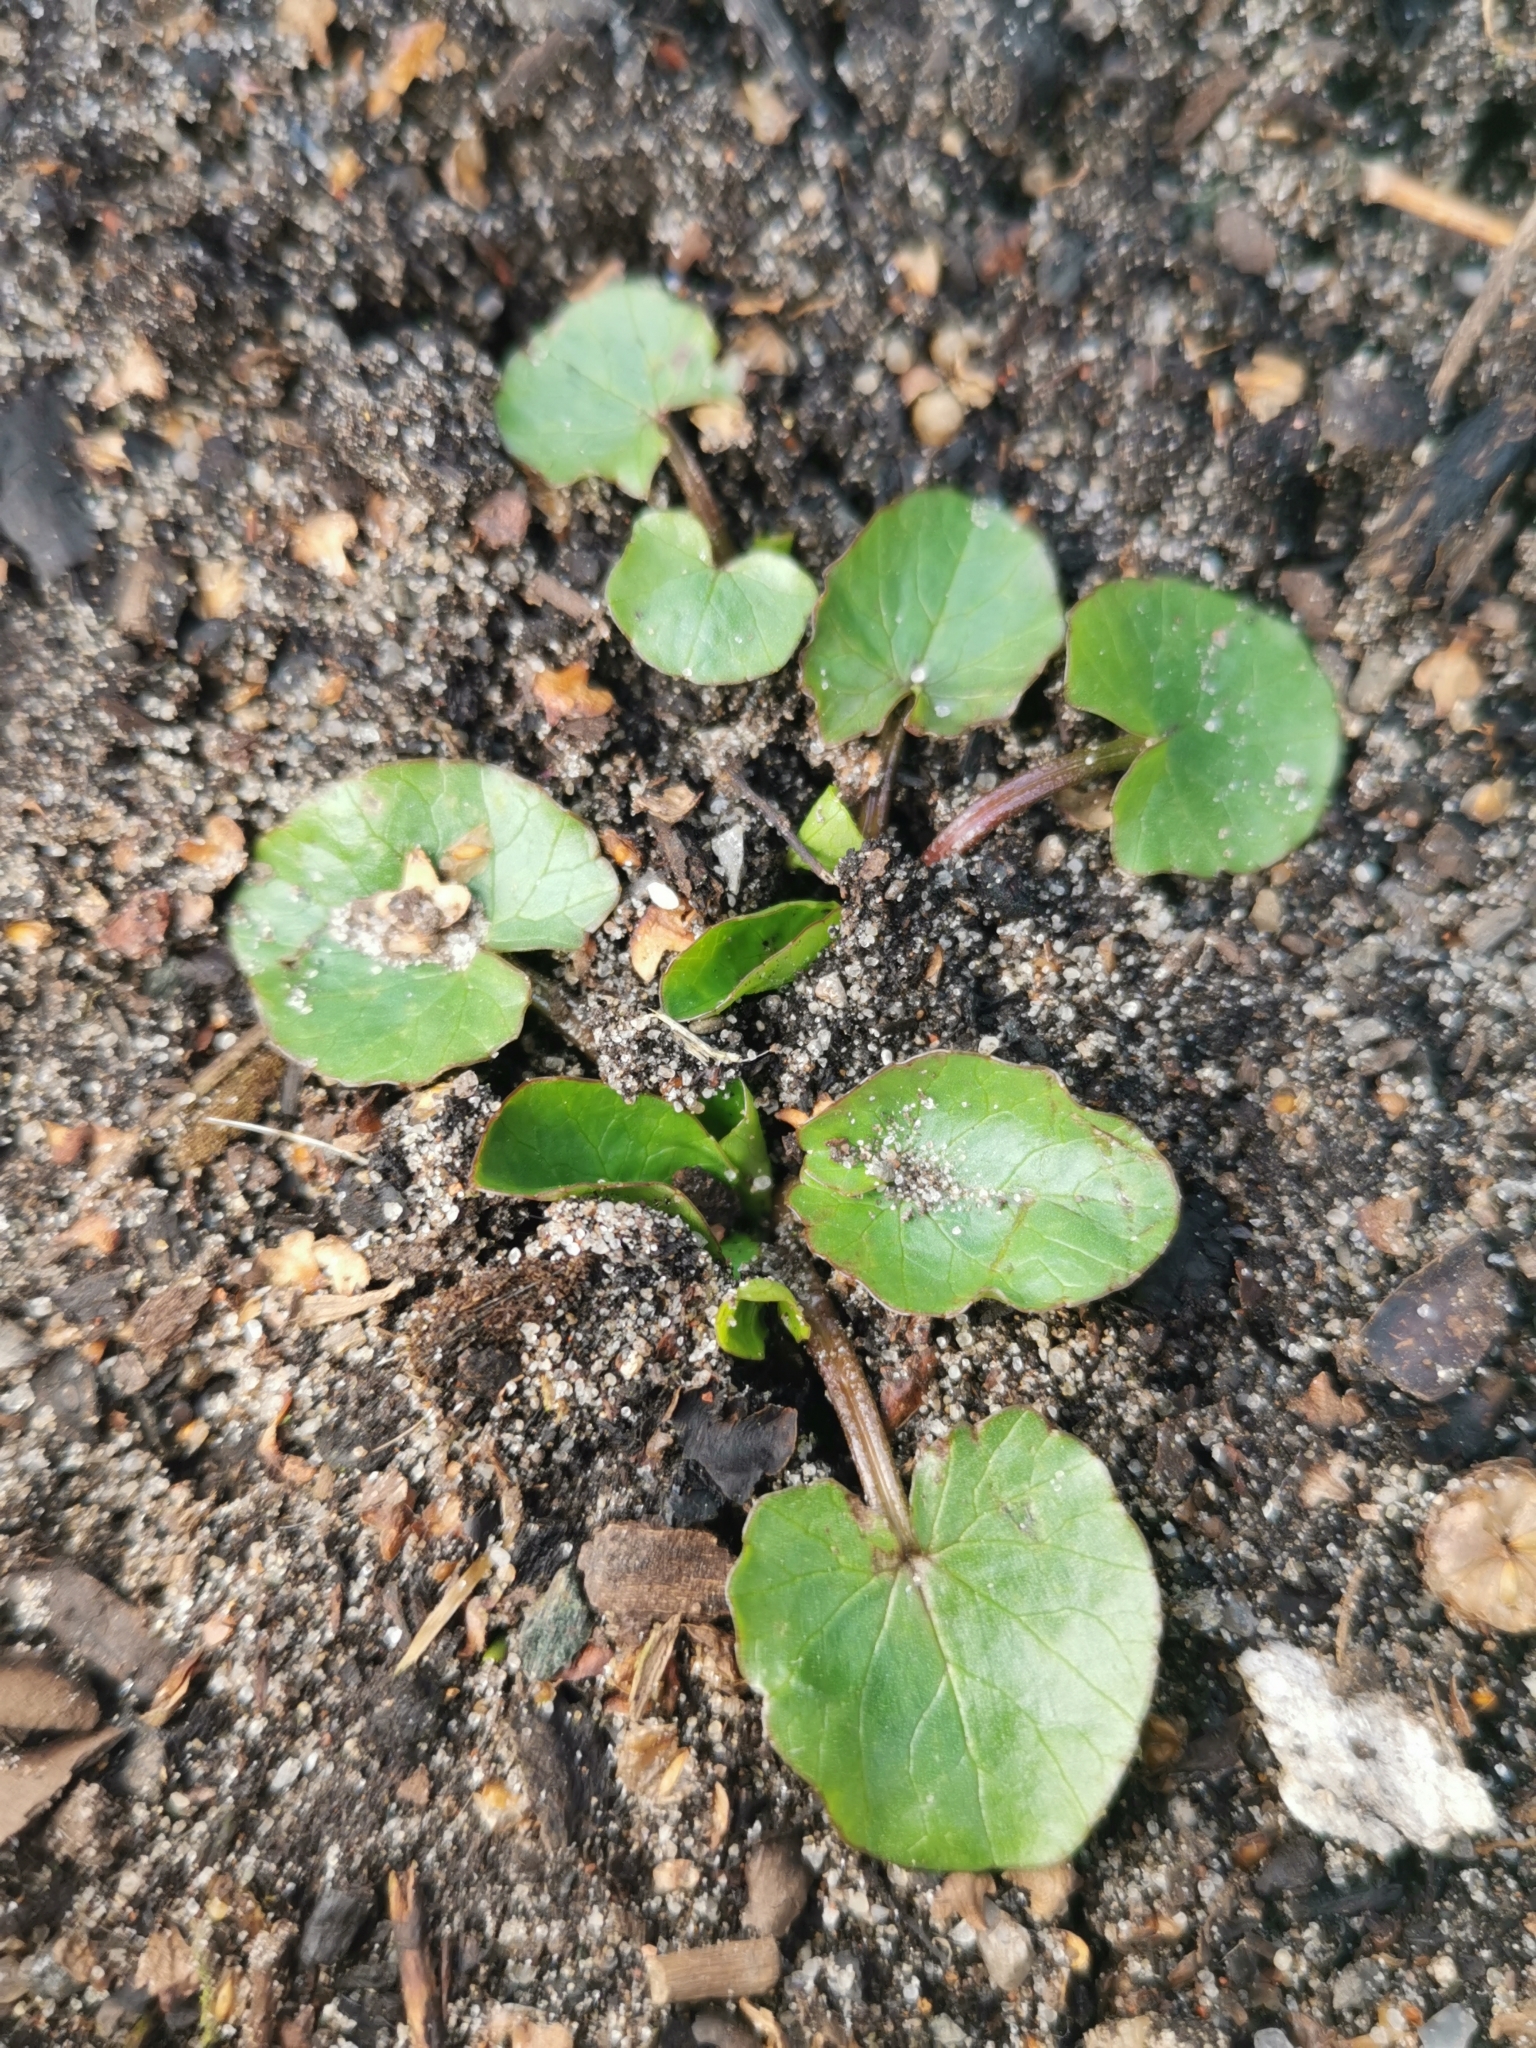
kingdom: Plantae
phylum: Tracheophyta
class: Magnoliopsida
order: Ranunculales
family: Ranunculaceae
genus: Ficaria
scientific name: Ficaria verna
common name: Lesser celandine
